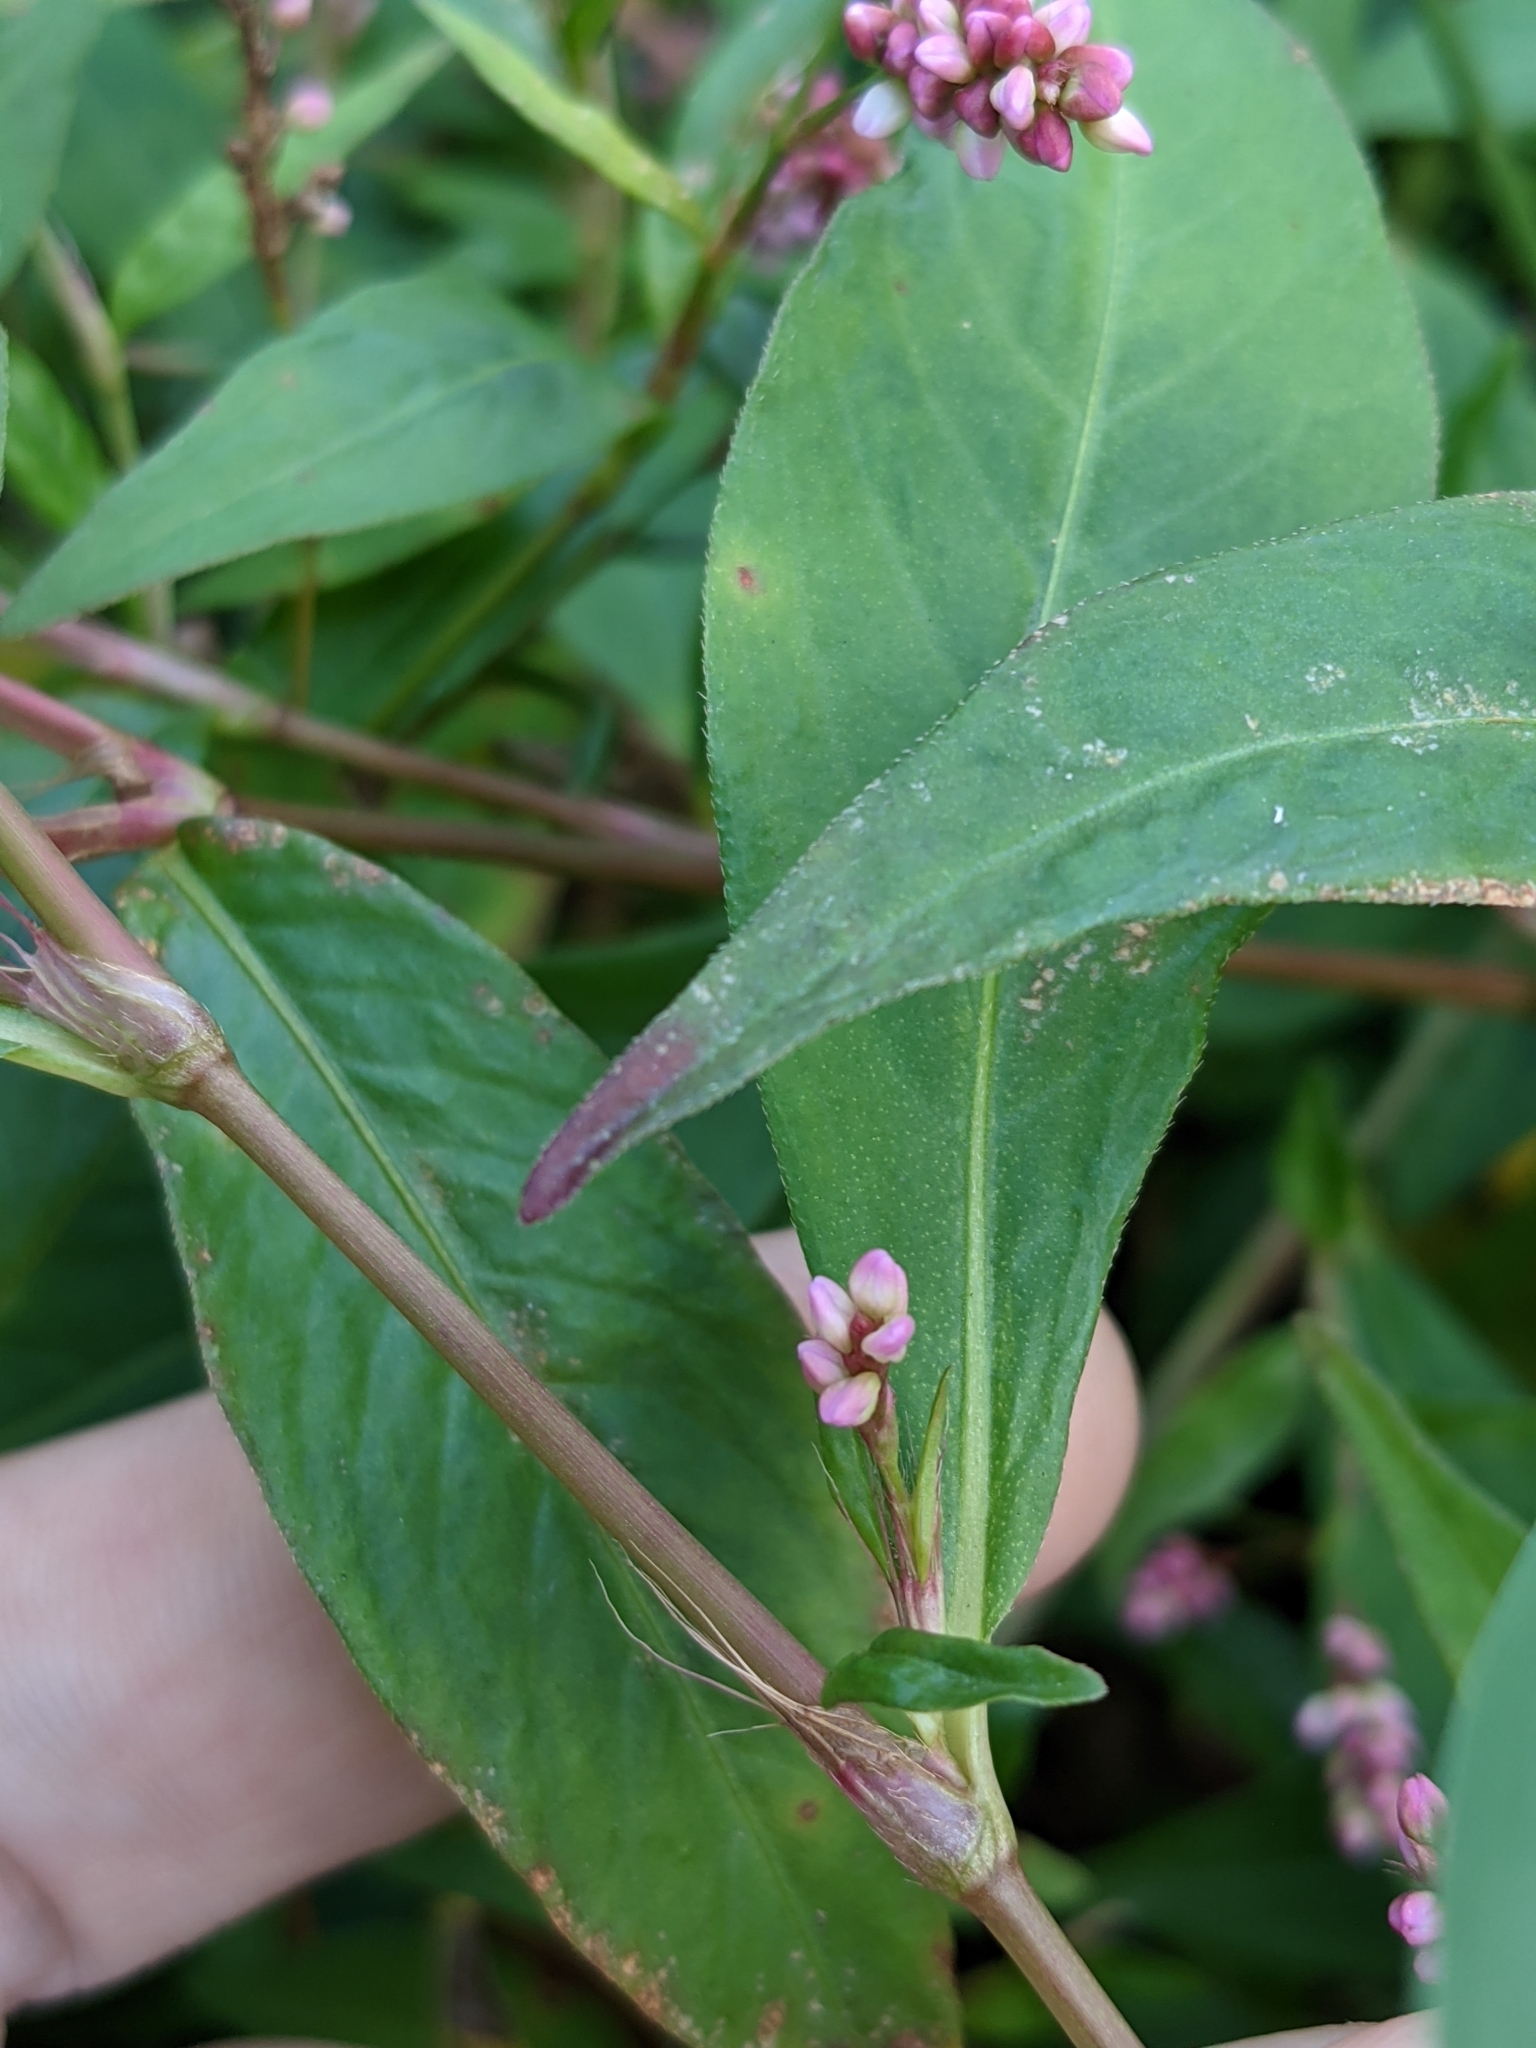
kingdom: Plantae
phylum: Tracheophyta
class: Magnoliopsida
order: Caryophyllales
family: Polygonaceae
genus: Persicaria
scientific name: Persicaria longiseta
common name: Bristly lady's-thumb
